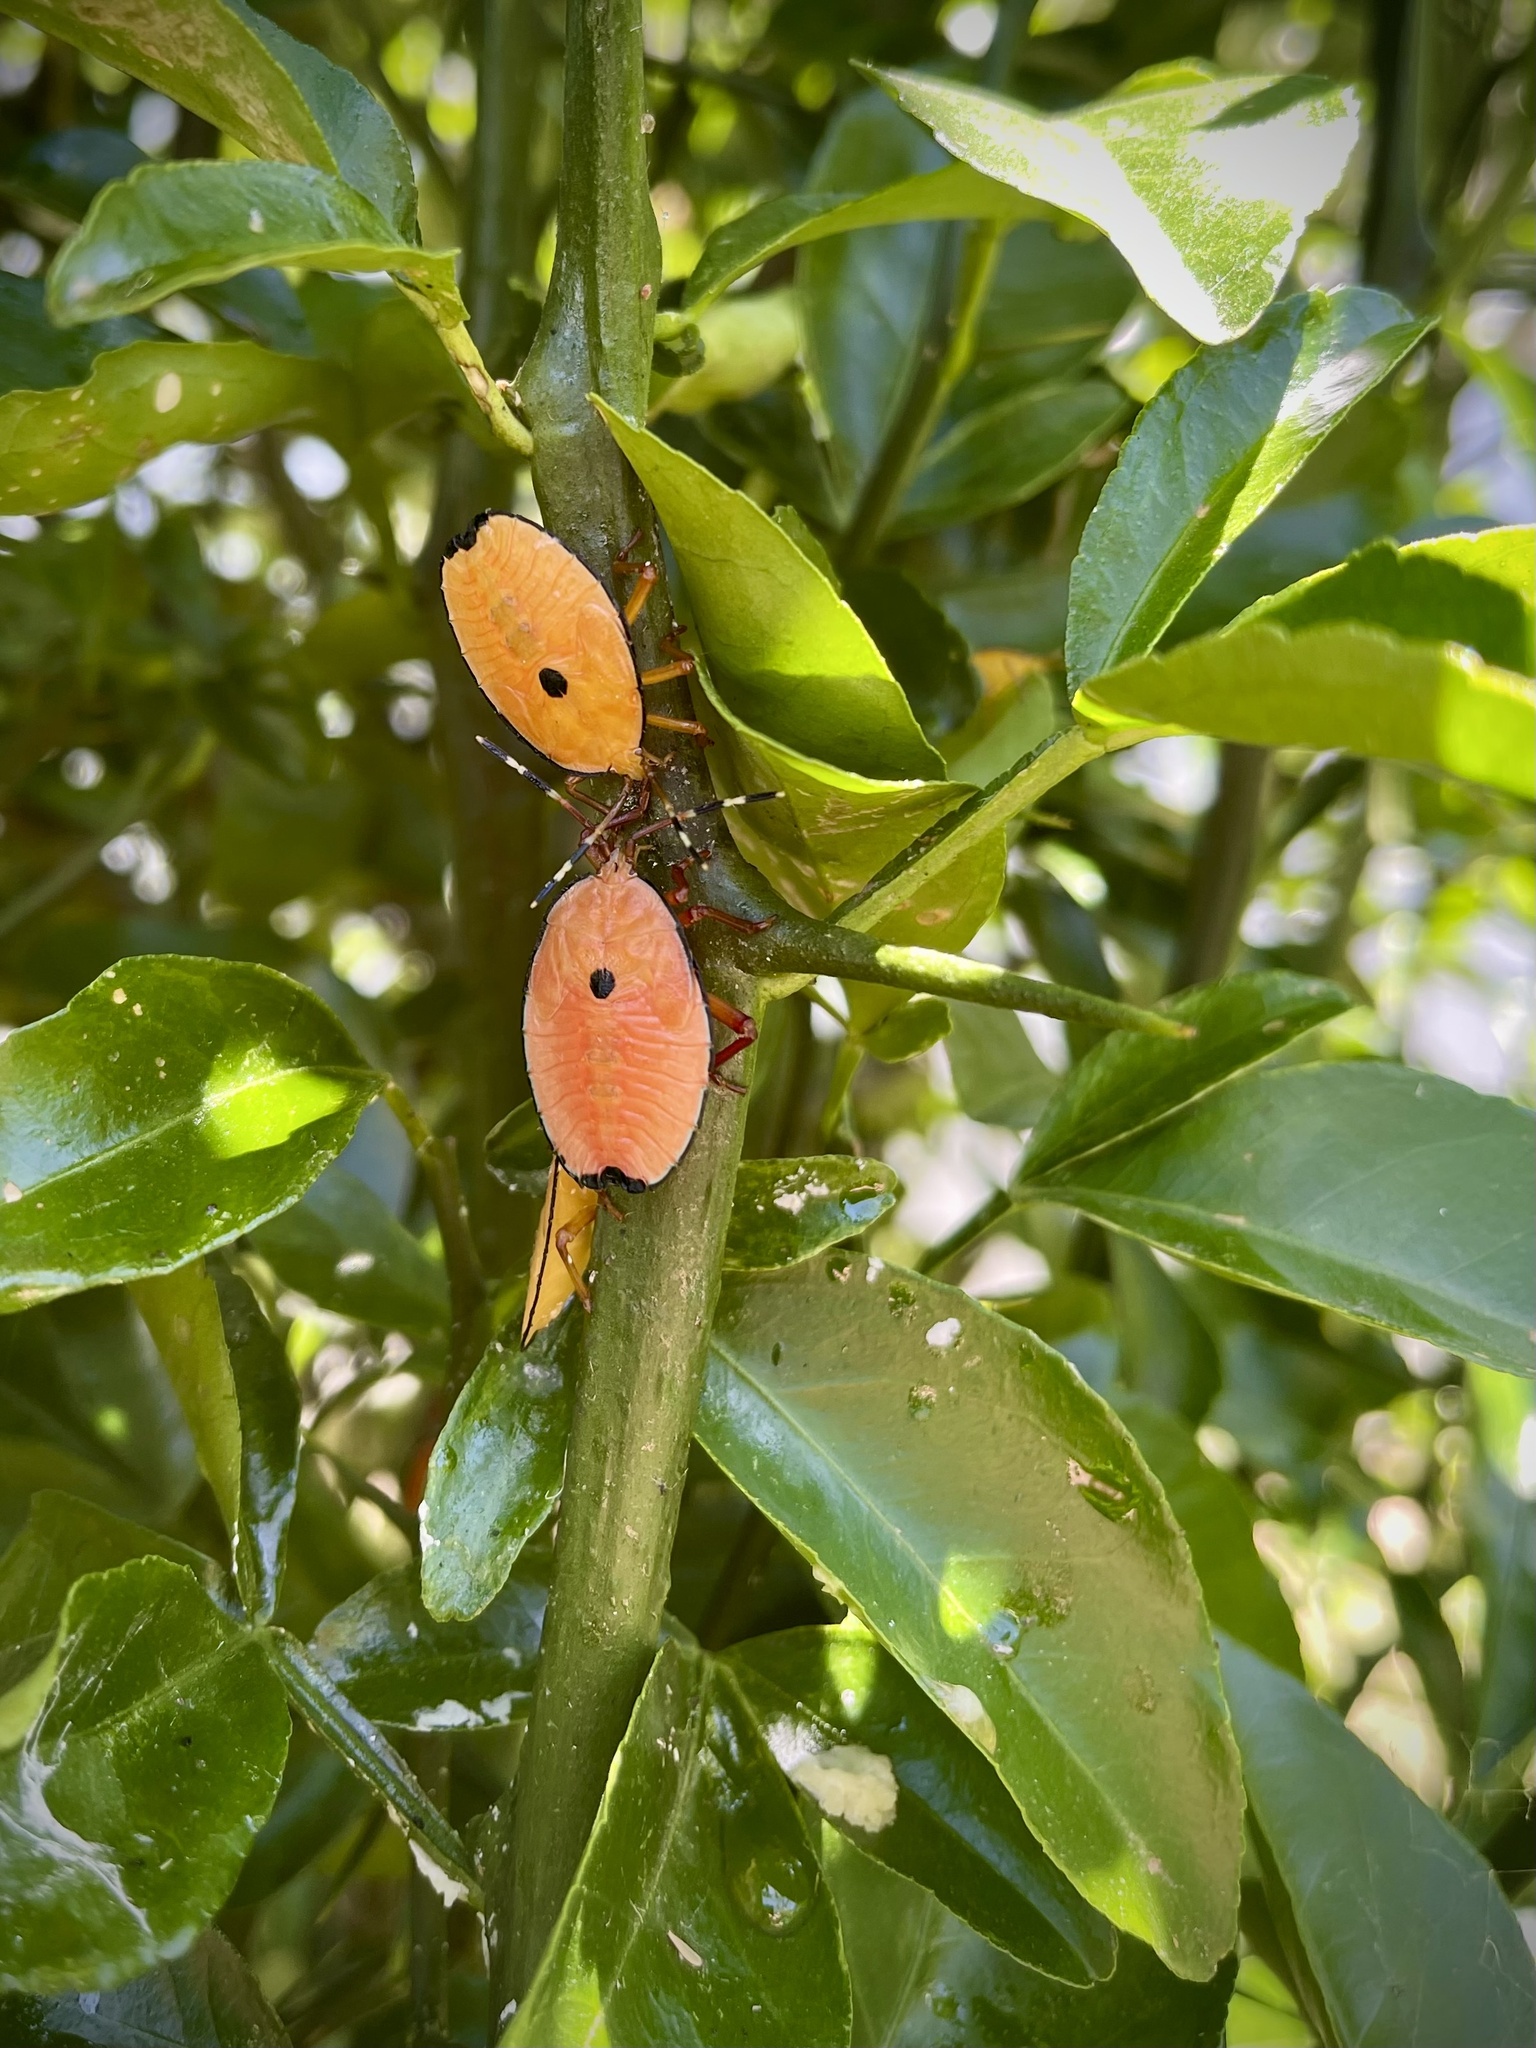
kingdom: Animalia
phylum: Arthropoda
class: Insecta
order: Hemiptera
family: Tessaratomidae
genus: Musgraveia
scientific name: Musgraveia sulciventris
